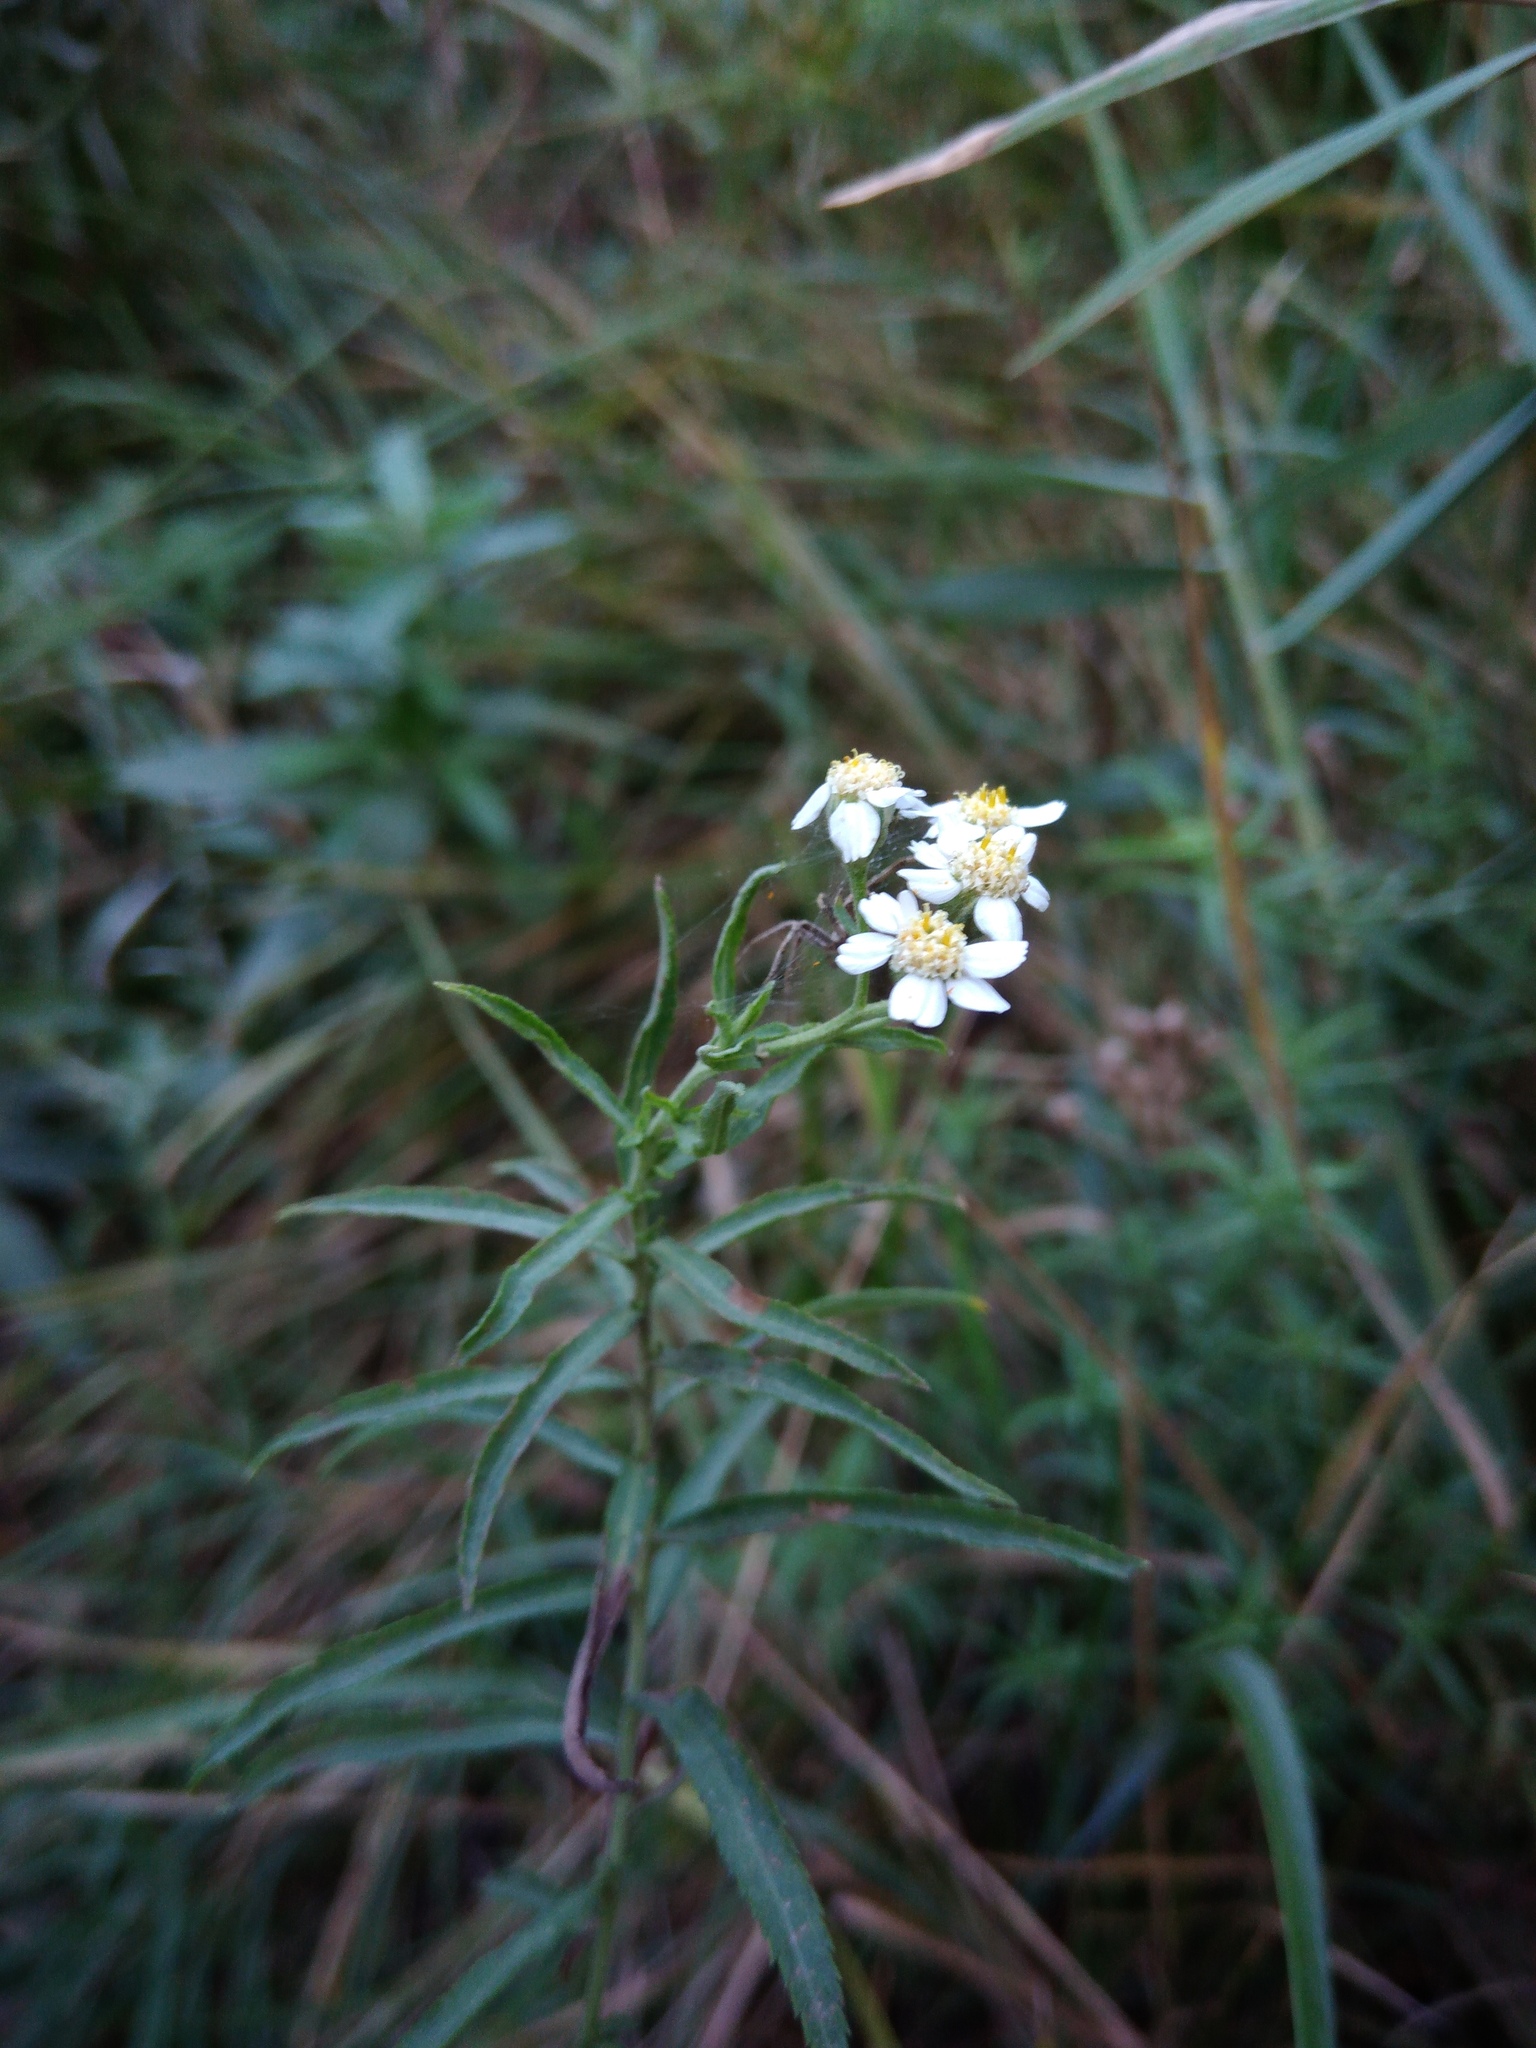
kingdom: Plantae
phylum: Tracheophyta
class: Magnoliopsida
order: Asterales
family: Asteraceae
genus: Achillea
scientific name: Achillea salicifolia
